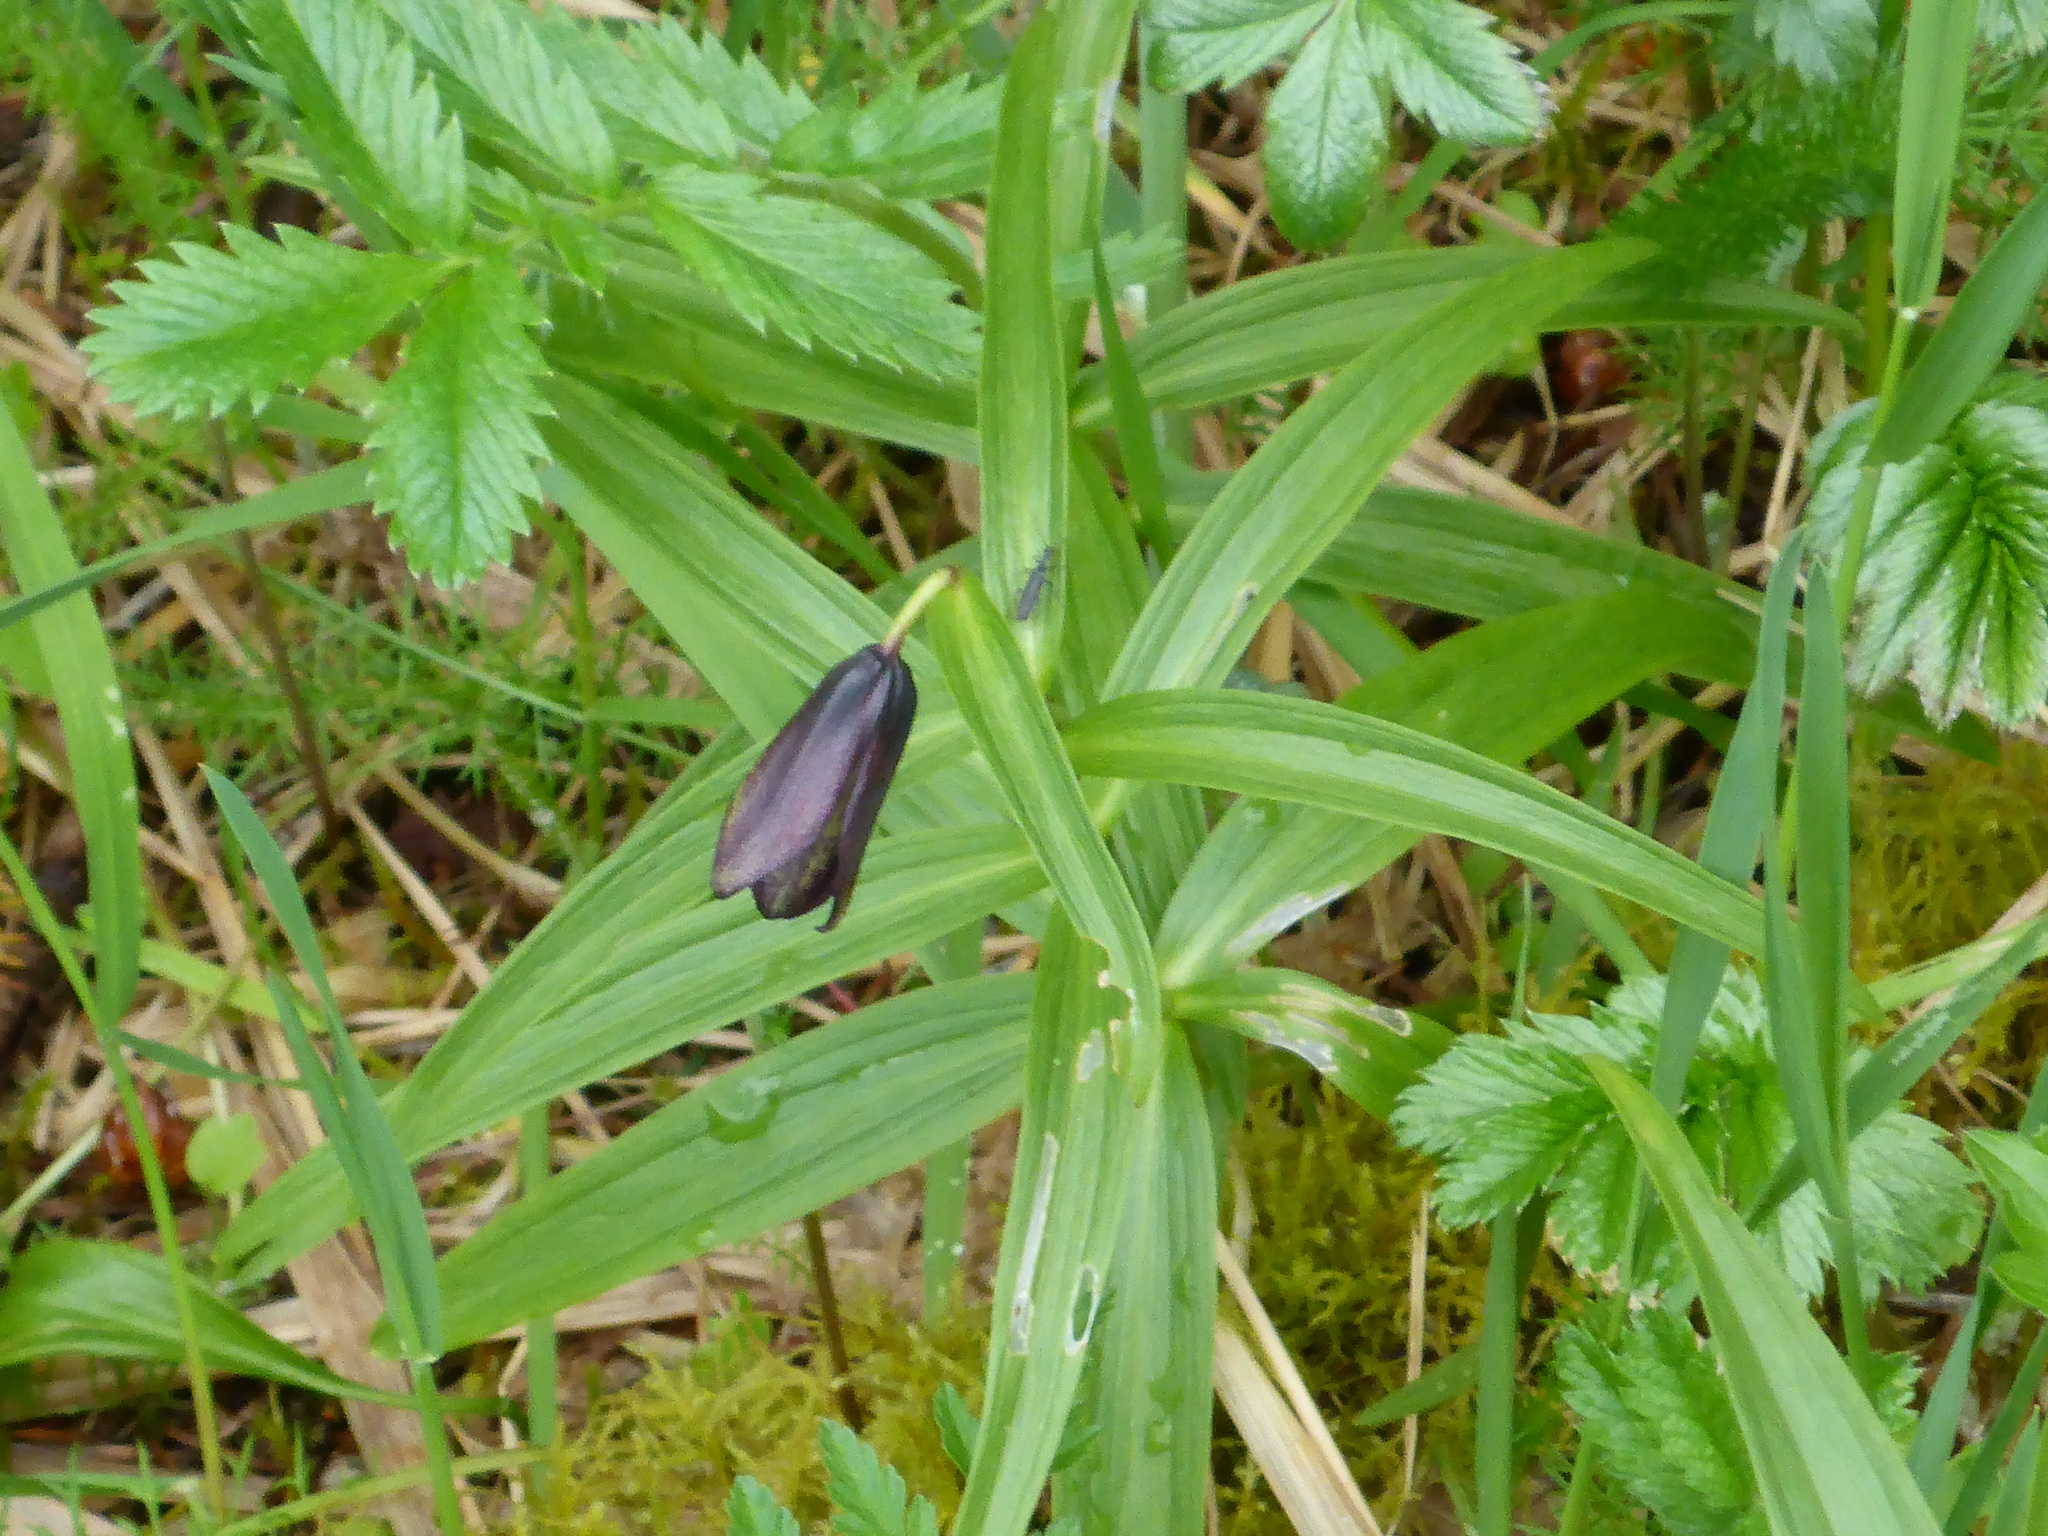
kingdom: Plantae
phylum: Tracheophyta
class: Liliopsida
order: Liliales
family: Liliaceae
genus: Fritillaria
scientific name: Fritillaria camschatcensis
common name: Kamchatka fritillary
